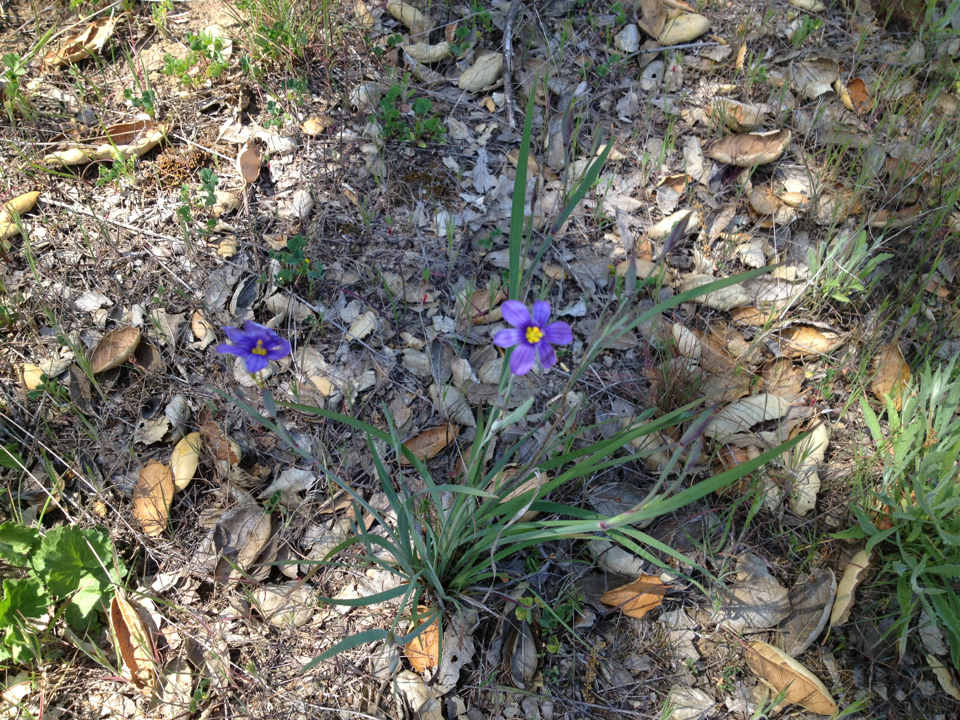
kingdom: Plantae
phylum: Tracheophyta
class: Liliopsida
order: Asparagales
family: Iridaceae
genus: Sisyrinchium
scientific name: Sisyrinchium bellum
